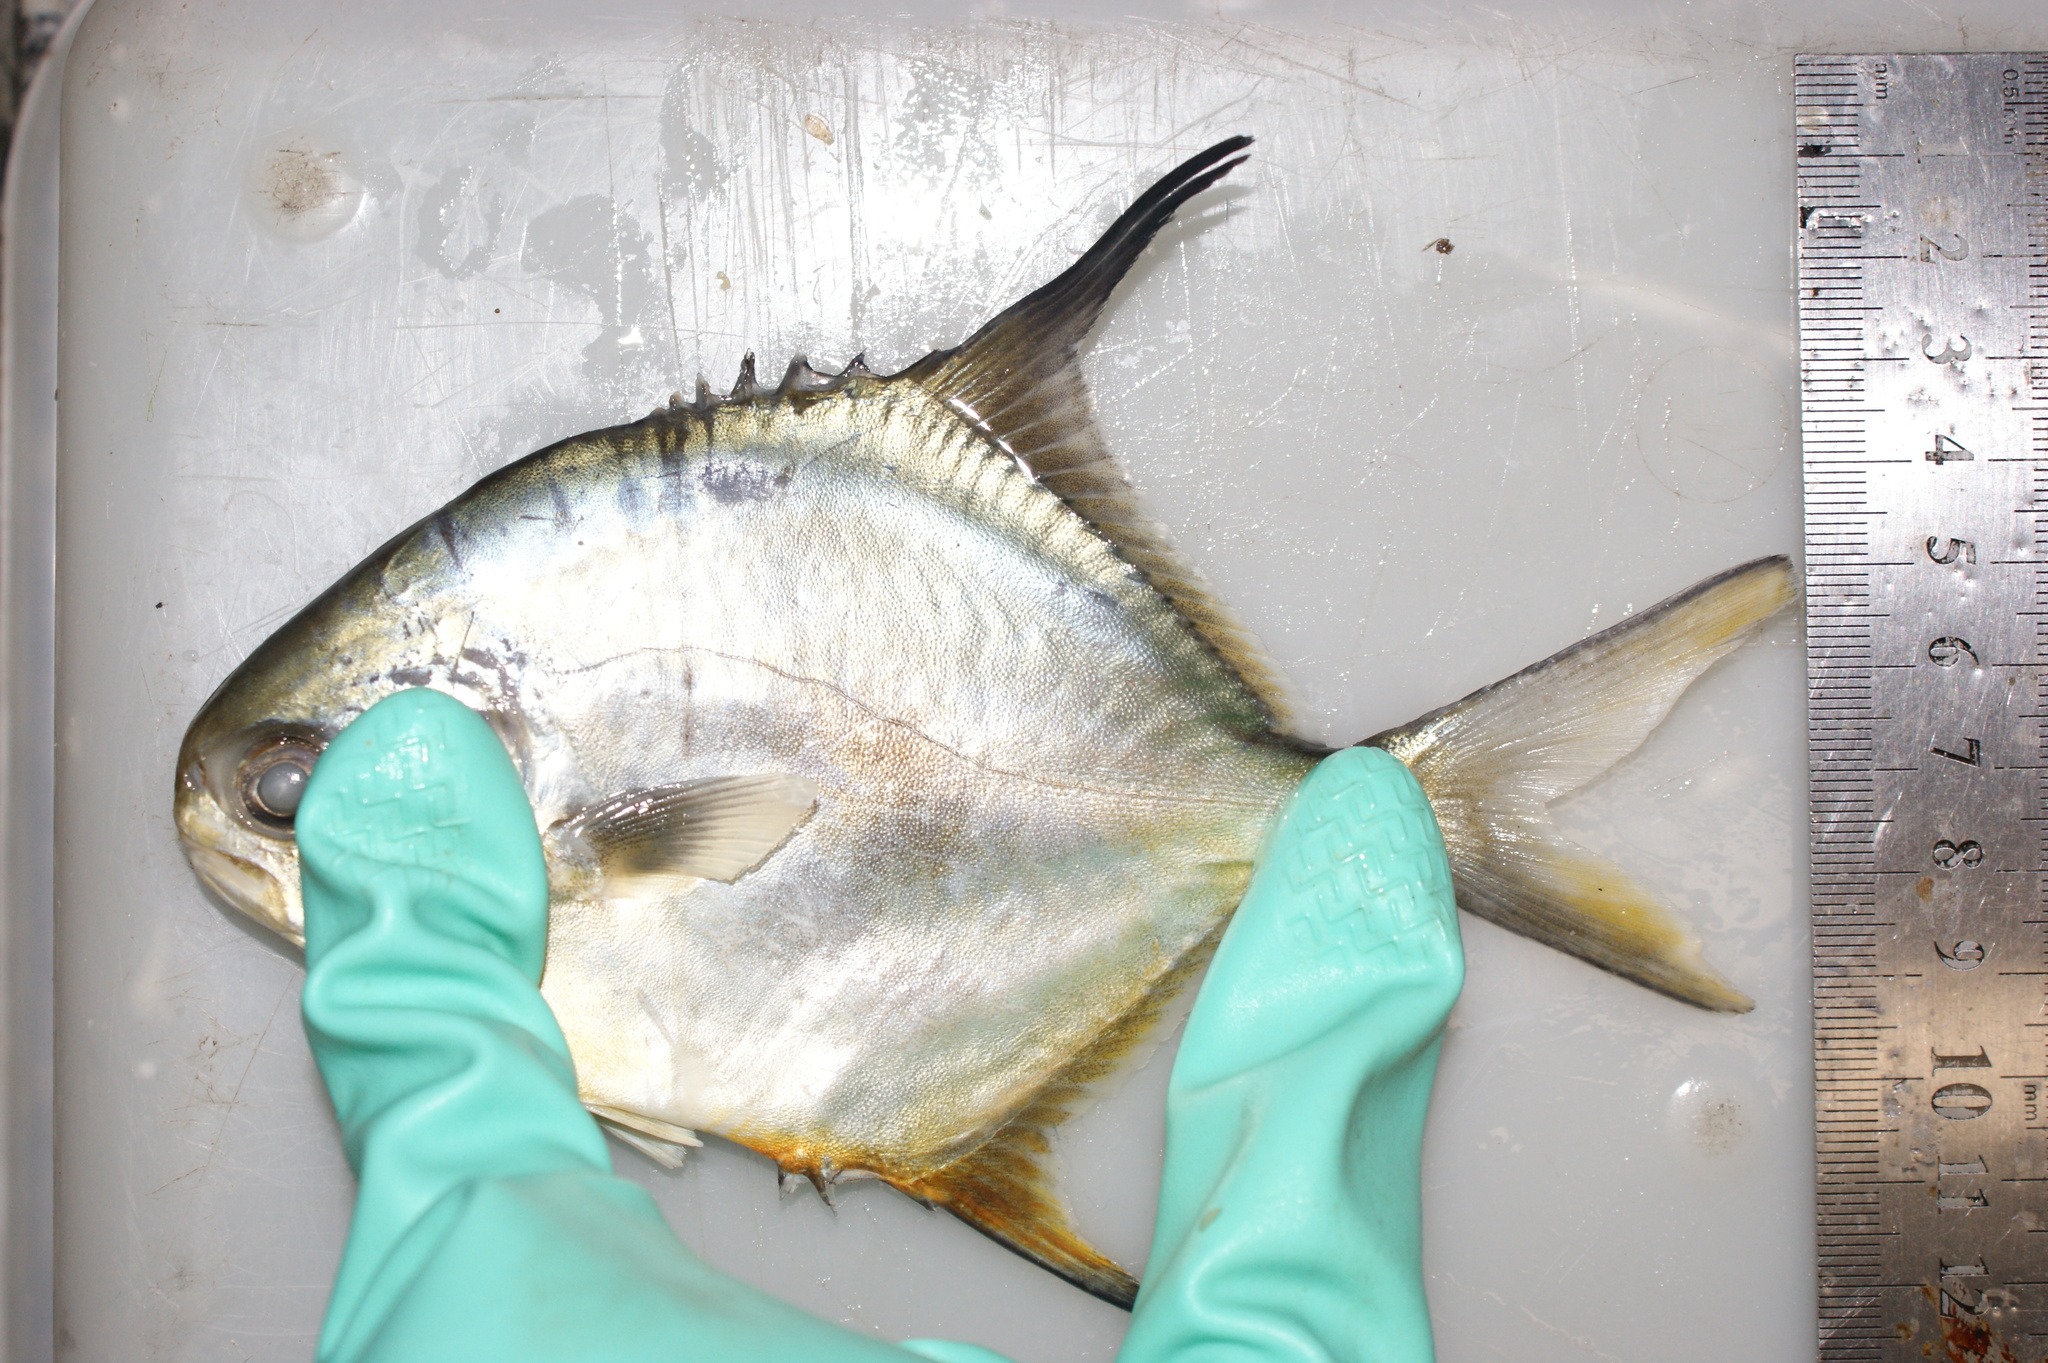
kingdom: Animalia
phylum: Chordata
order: Perciformes
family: Carangidae
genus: Trachinotus
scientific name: Trachinotus falcatus
